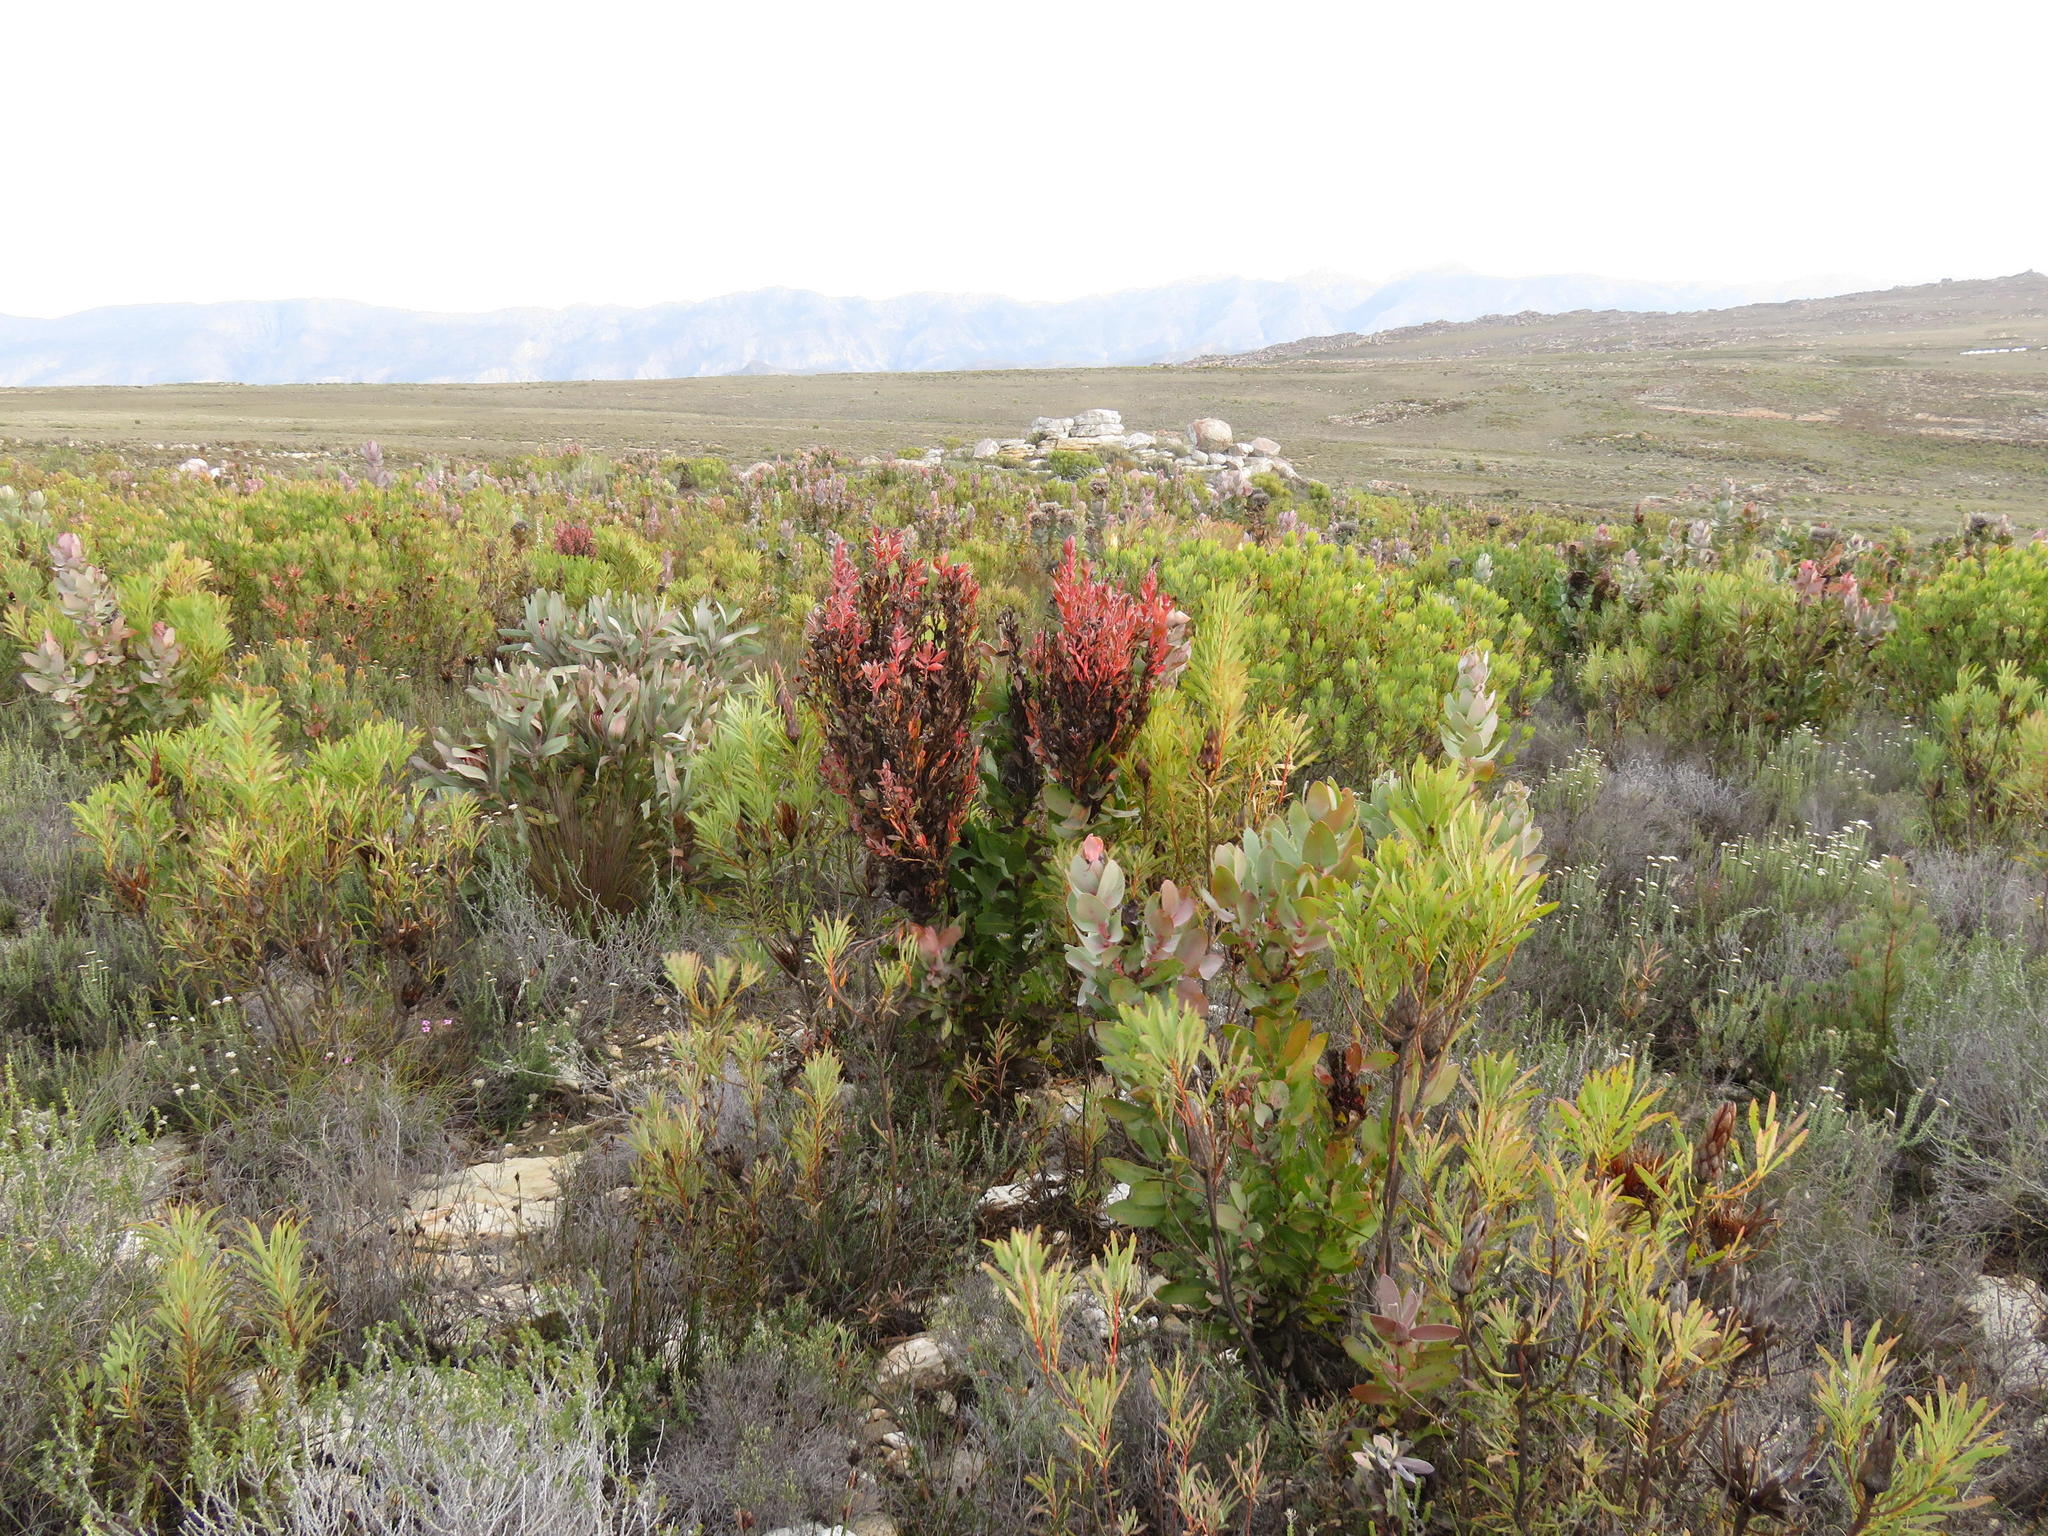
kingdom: Plantae
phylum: Tracheophyta
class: Magnoliopsida
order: Proteales
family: Proteaceae
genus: Protea
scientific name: Protea eximia
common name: Broad-leaved sugarbush
